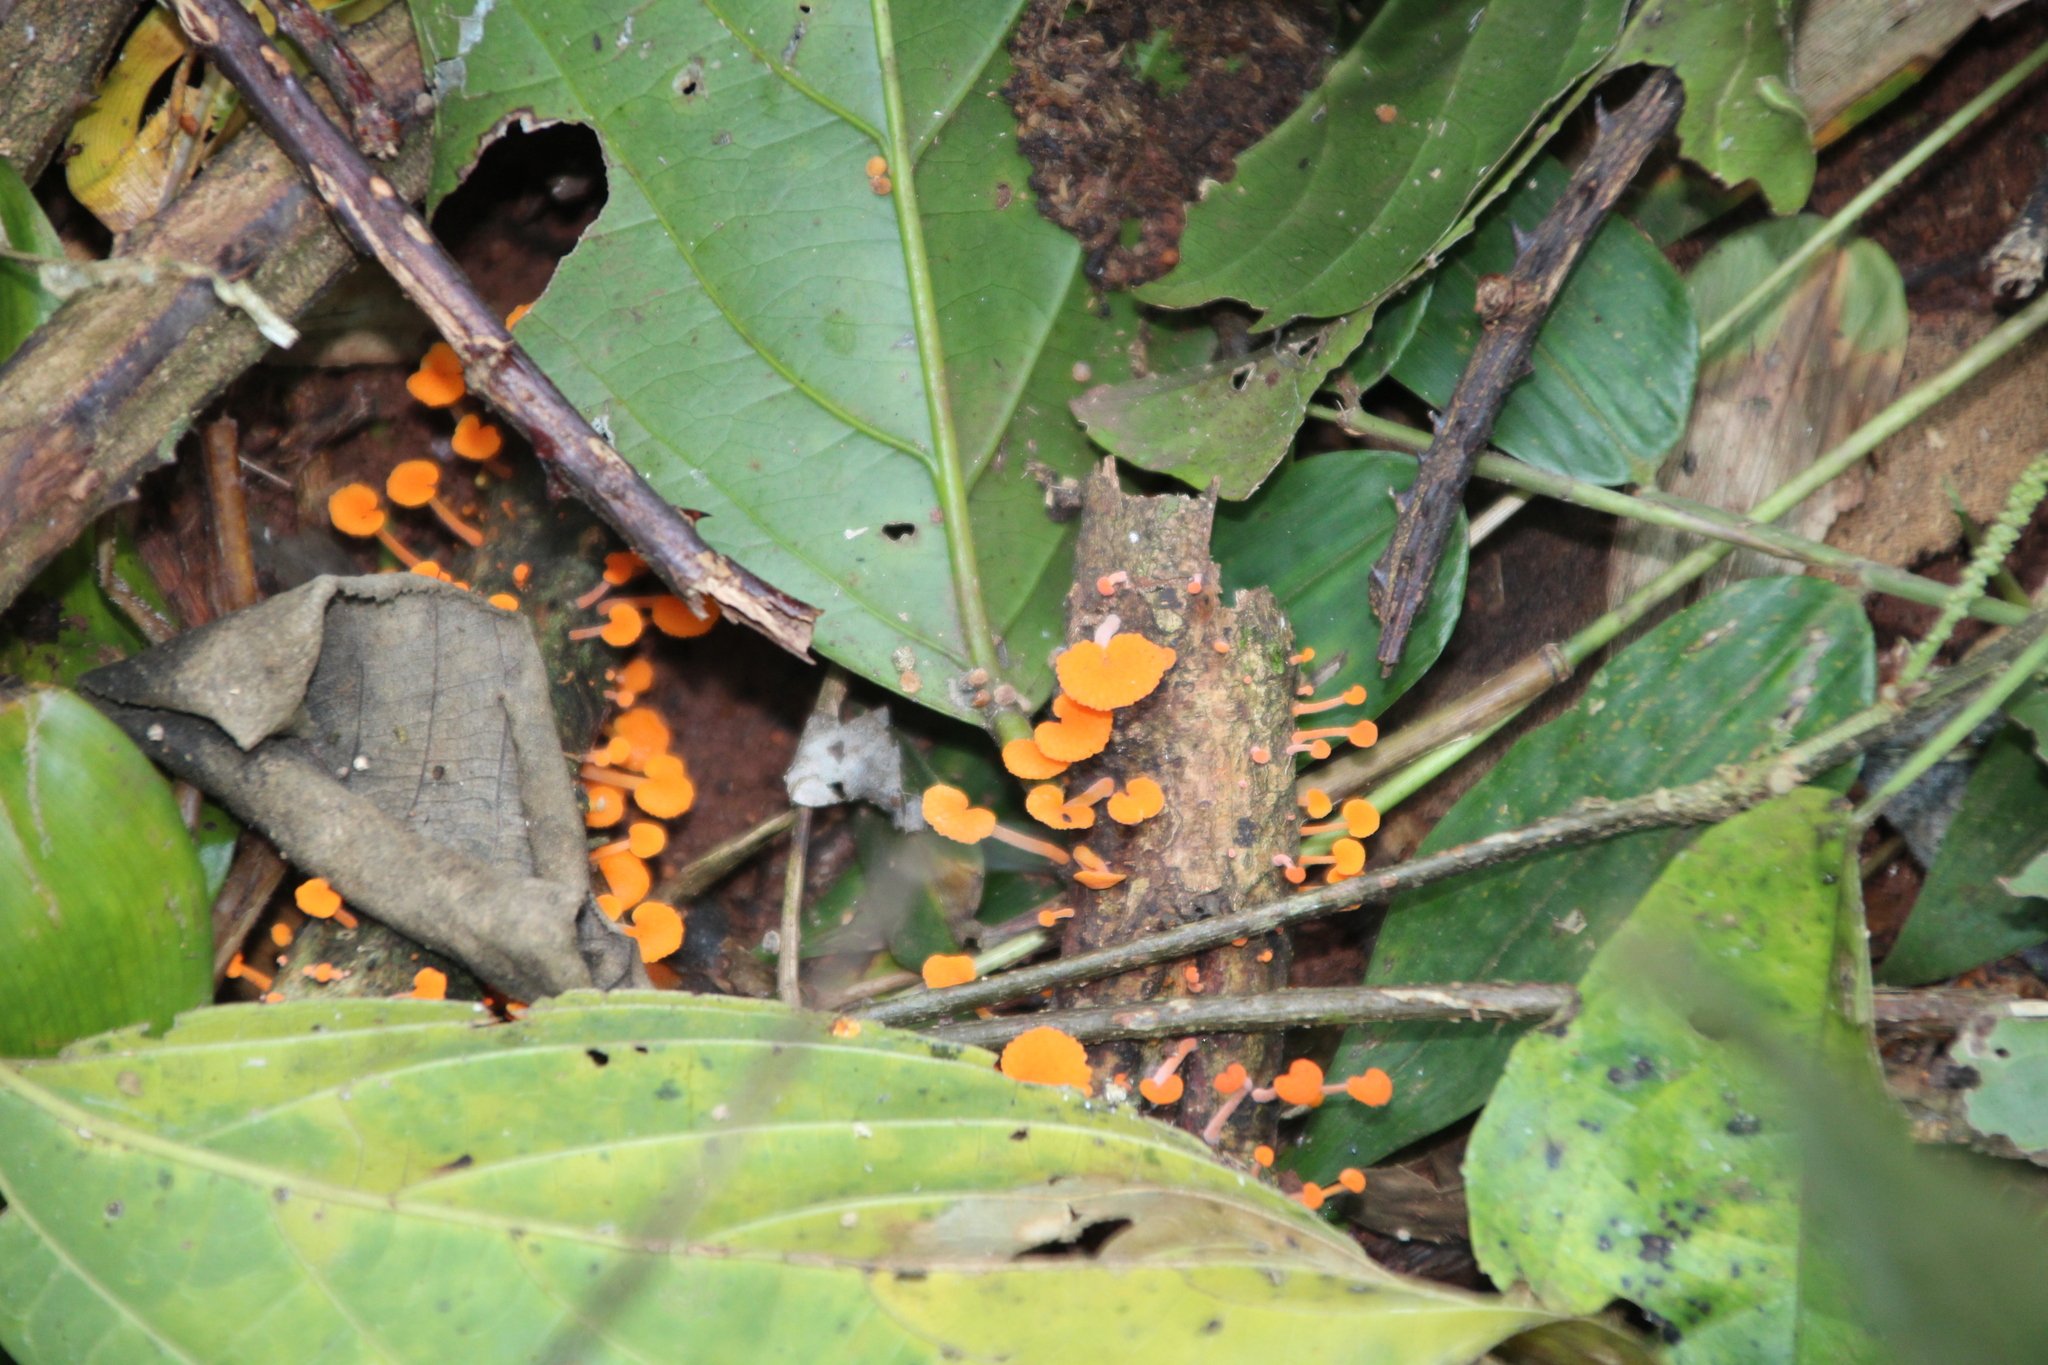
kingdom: Fungi
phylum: Basidiomycota
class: Agaricomycetes
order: Agaricales
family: Mycenaceae
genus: Favolaschia
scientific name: Favolaschia claudopus
